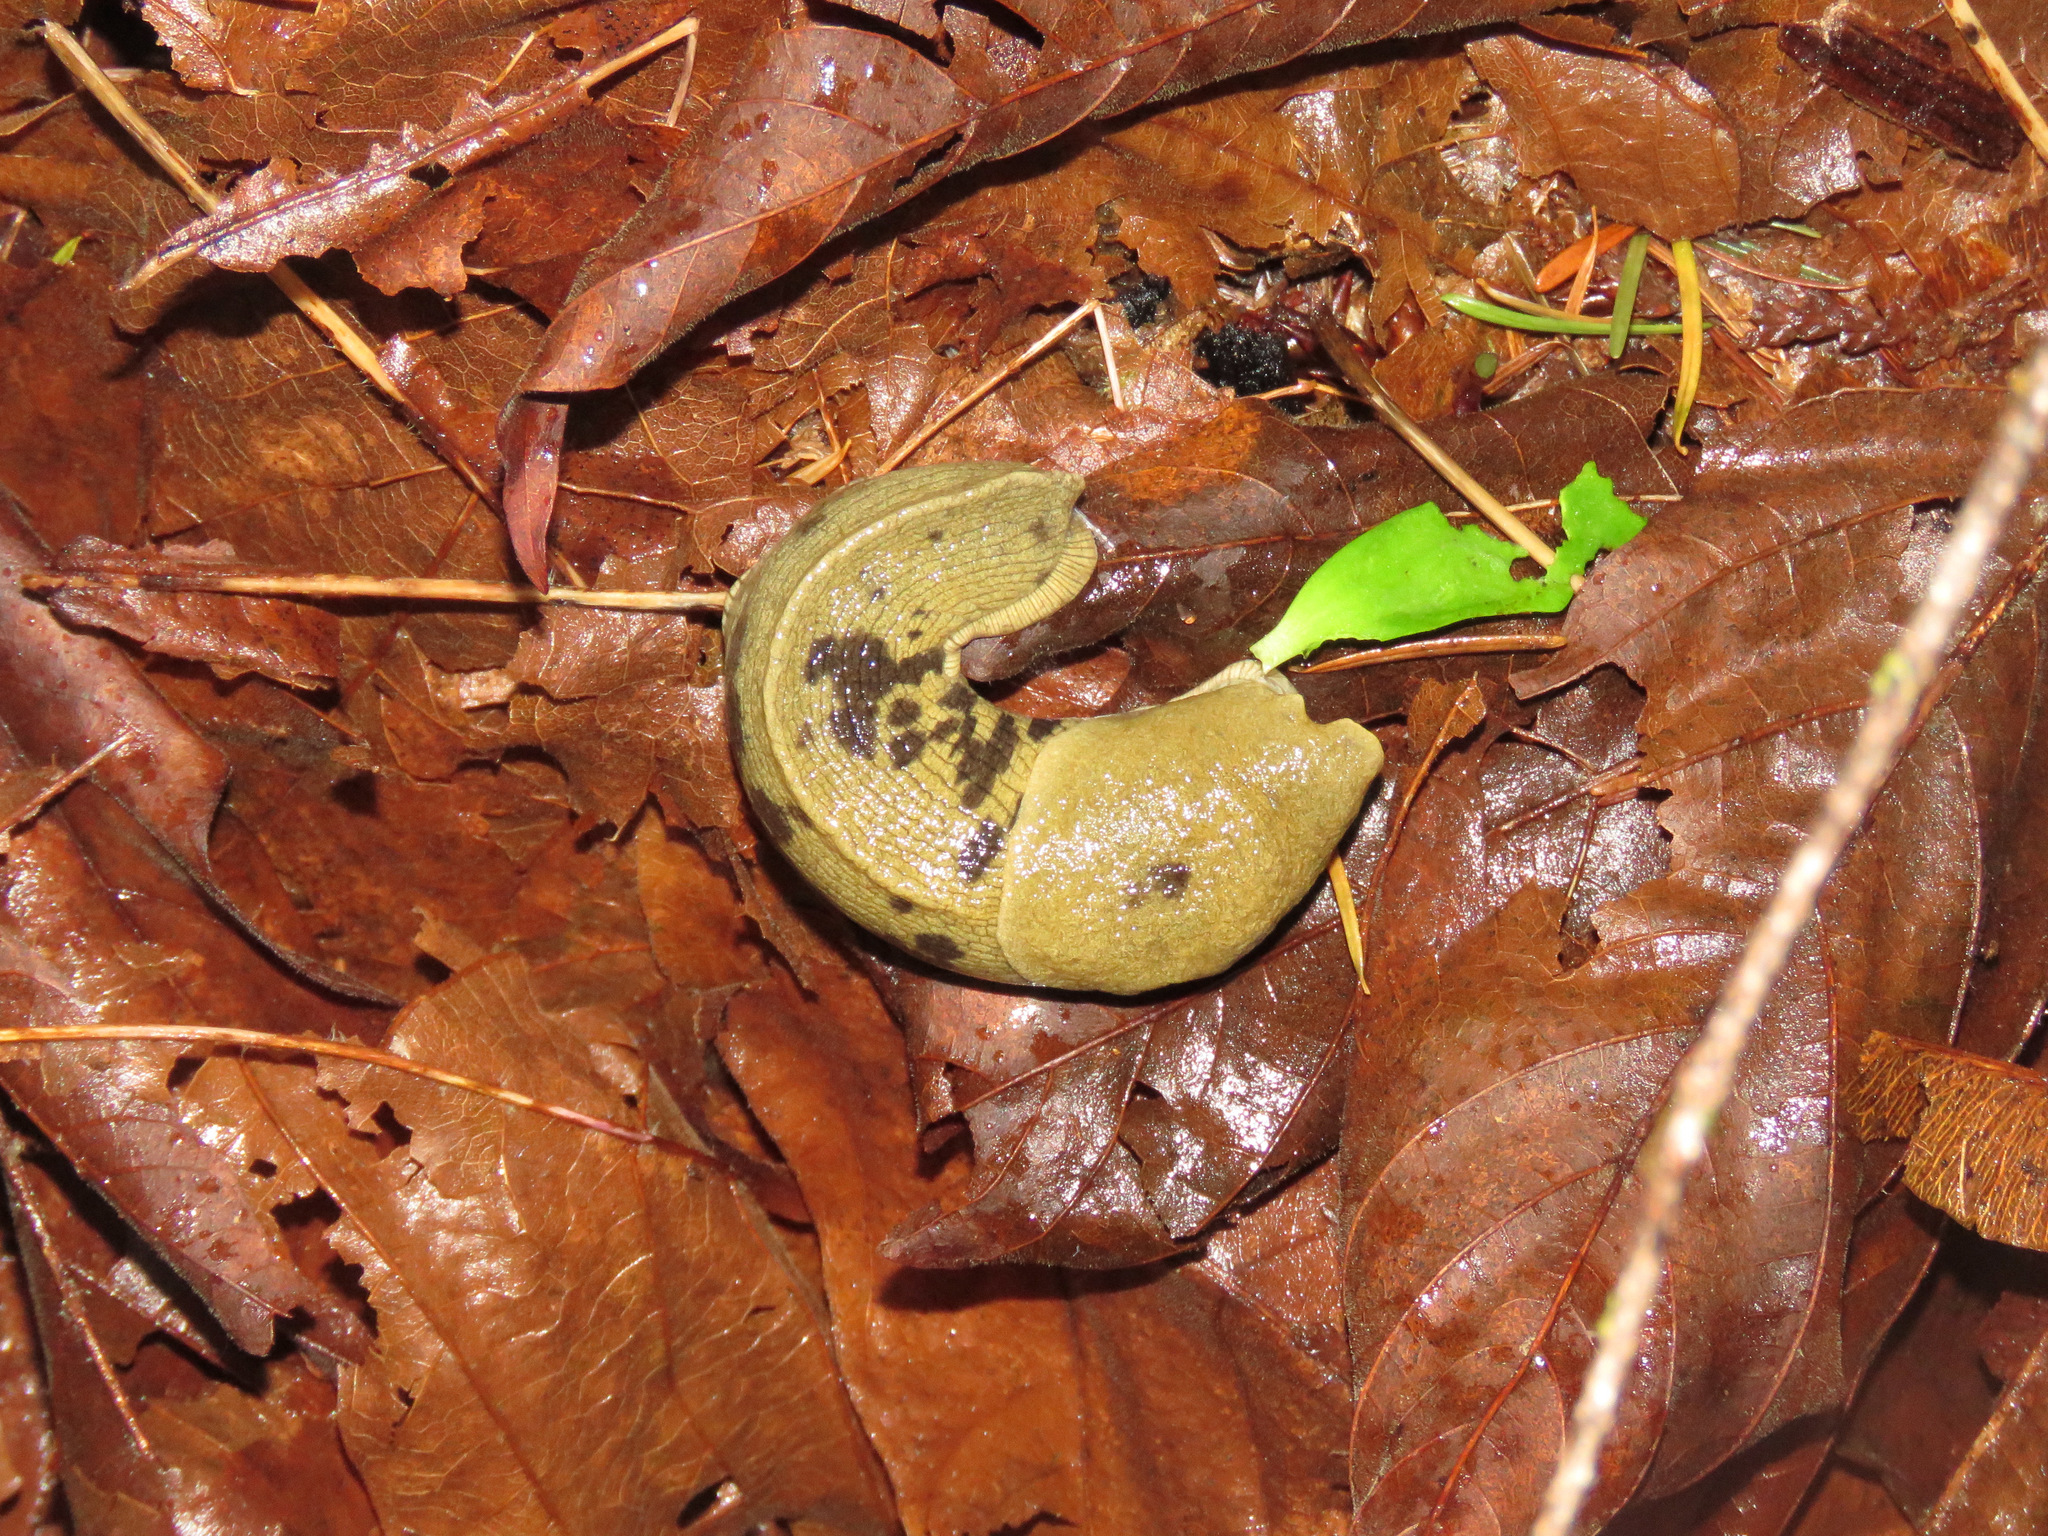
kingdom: Animalia
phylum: Mollusca
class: Gastropoda
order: Stylommatophora
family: Ariolimacidae
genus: Ariolimax
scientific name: Ariolimax columbianus
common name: Pacific banana slug
